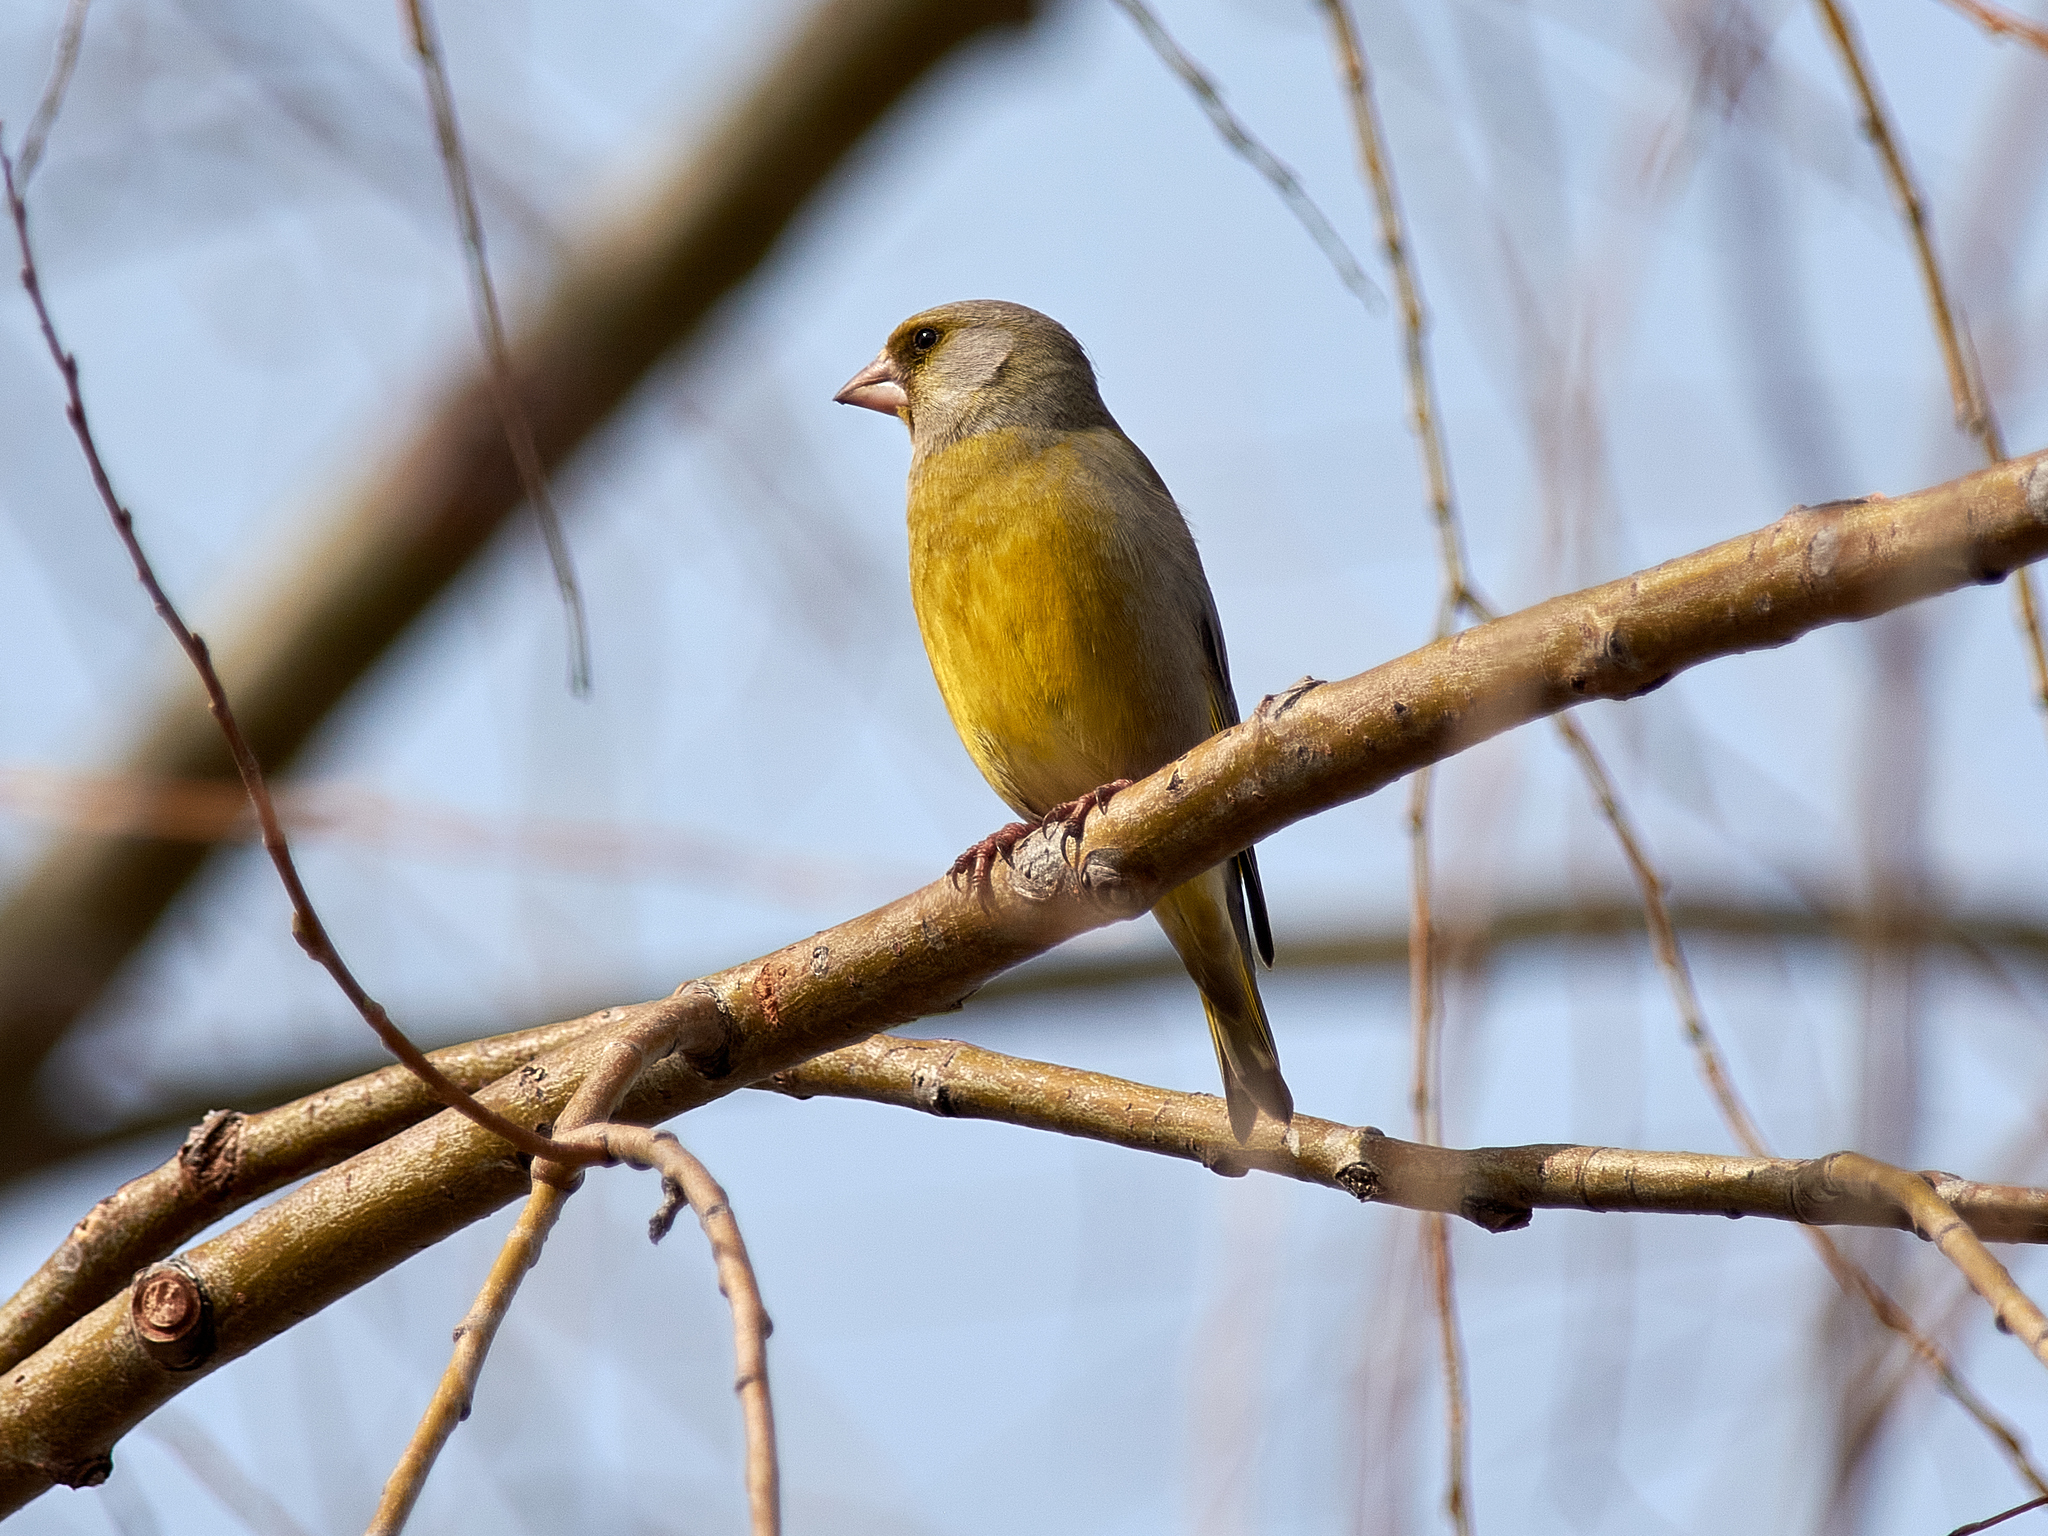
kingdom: Plantae
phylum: Tracheophyta
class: Liliopsida
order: Poales
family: Poaceae
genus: Chloris
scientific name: Chloris chloris
